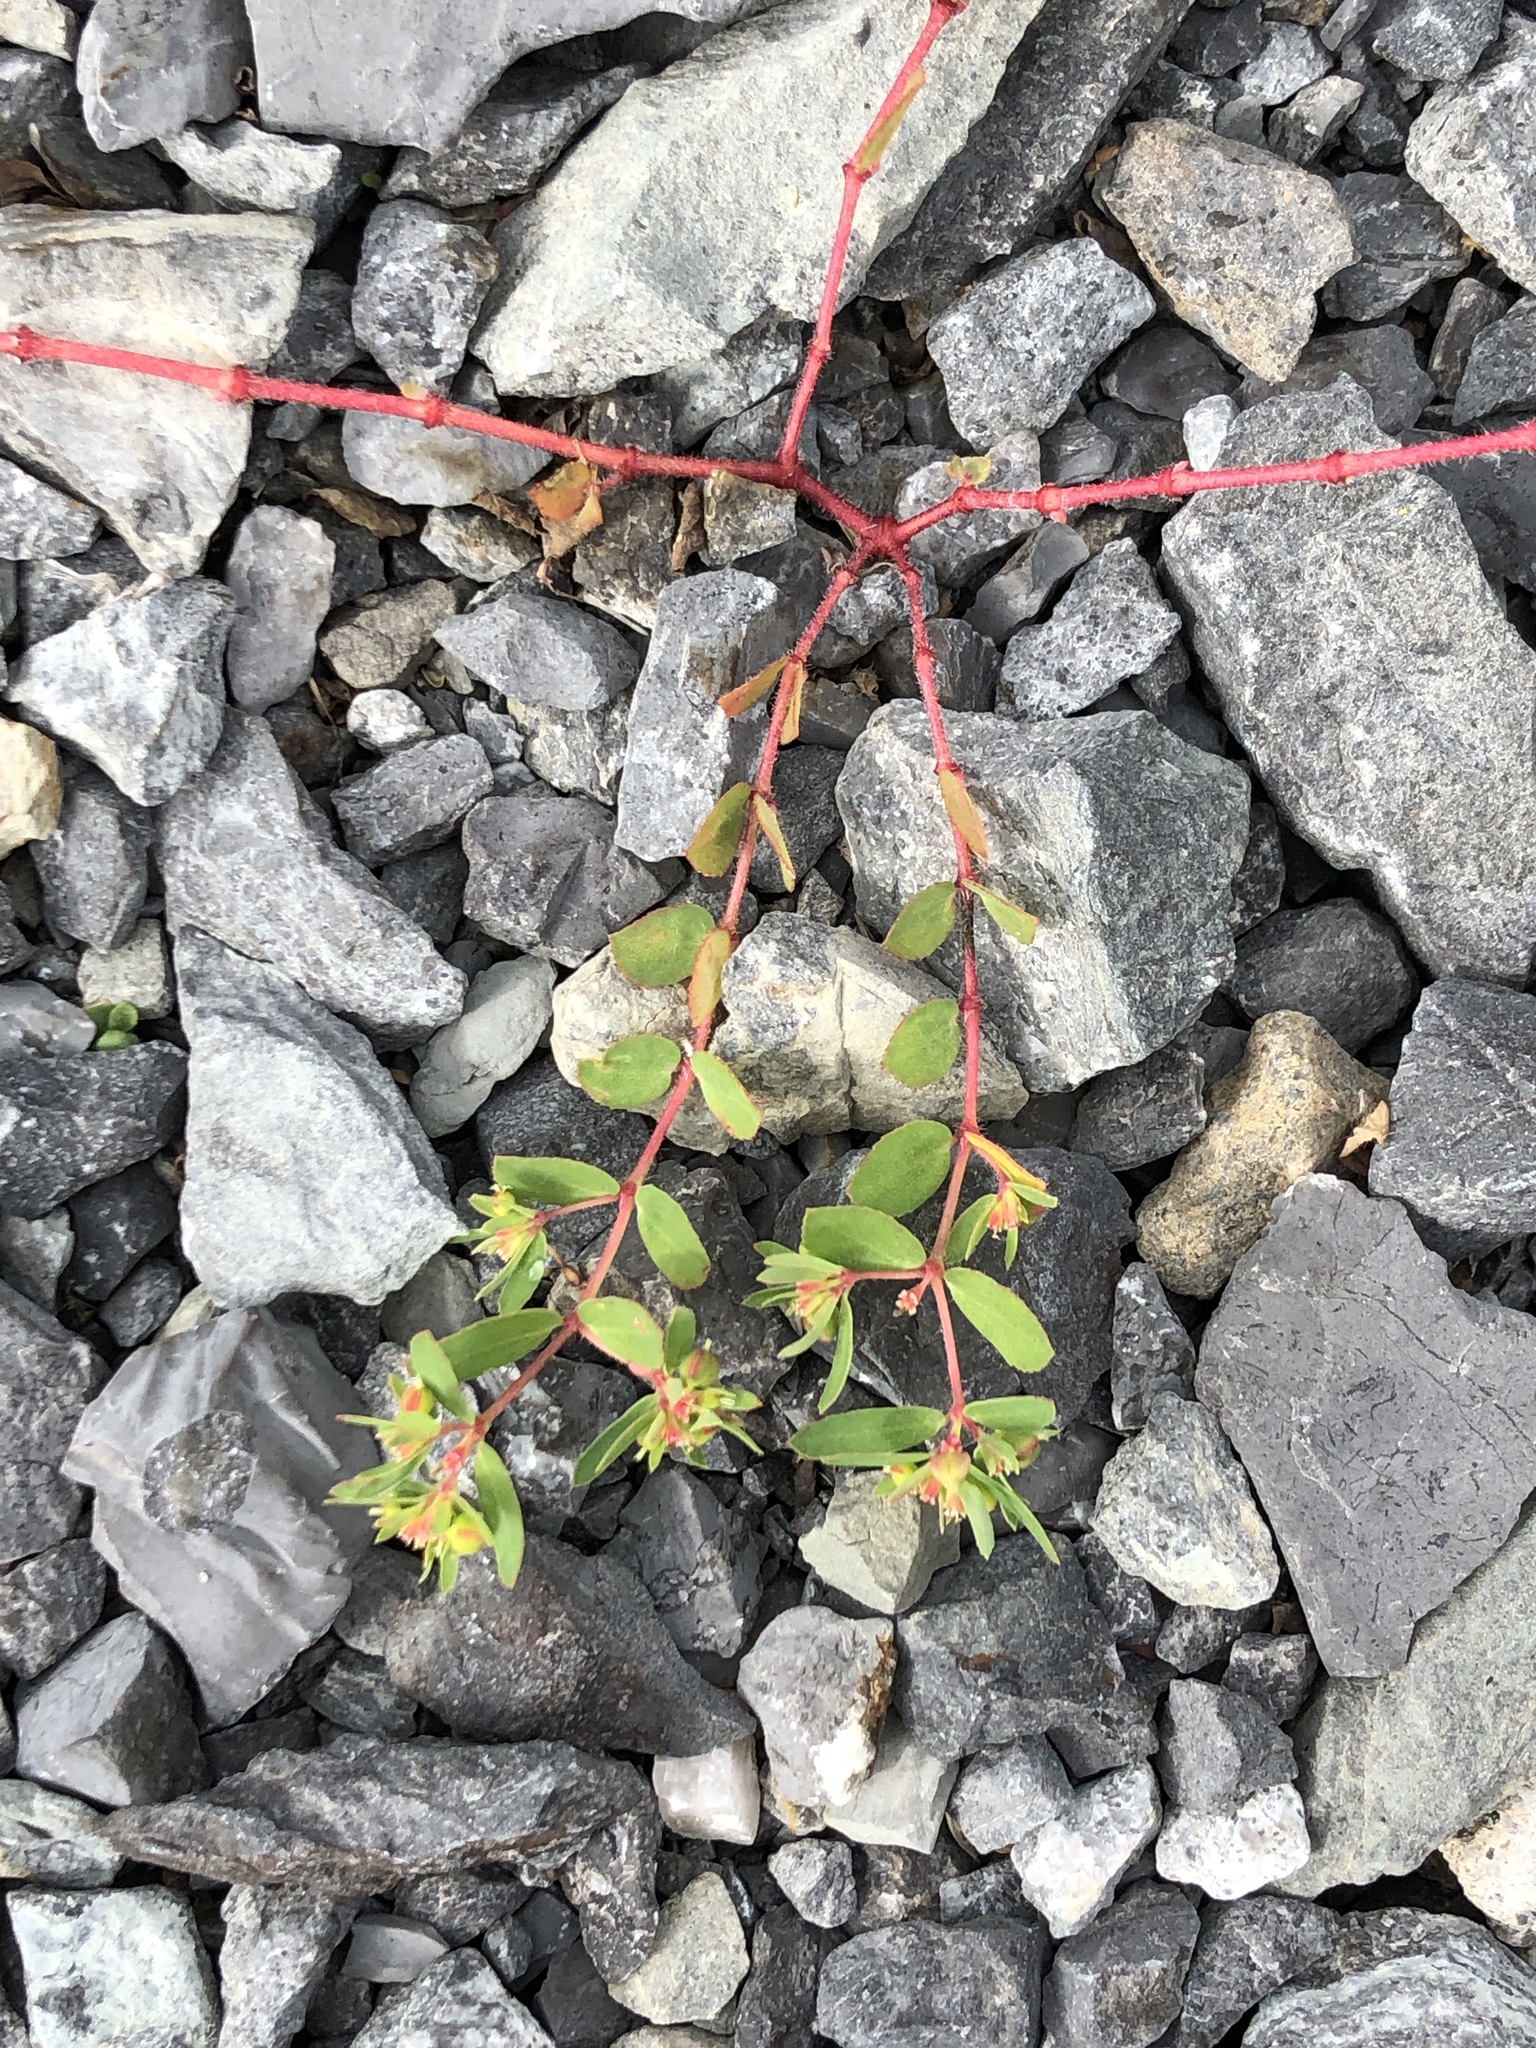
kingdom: Plantae
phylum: Tracheophyta
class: Magnoliopsida
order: Malpighiales
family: Euphorbiaceae
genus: Euphorbia
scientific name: Euphorbia vermiculata
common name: Hairy spurge
